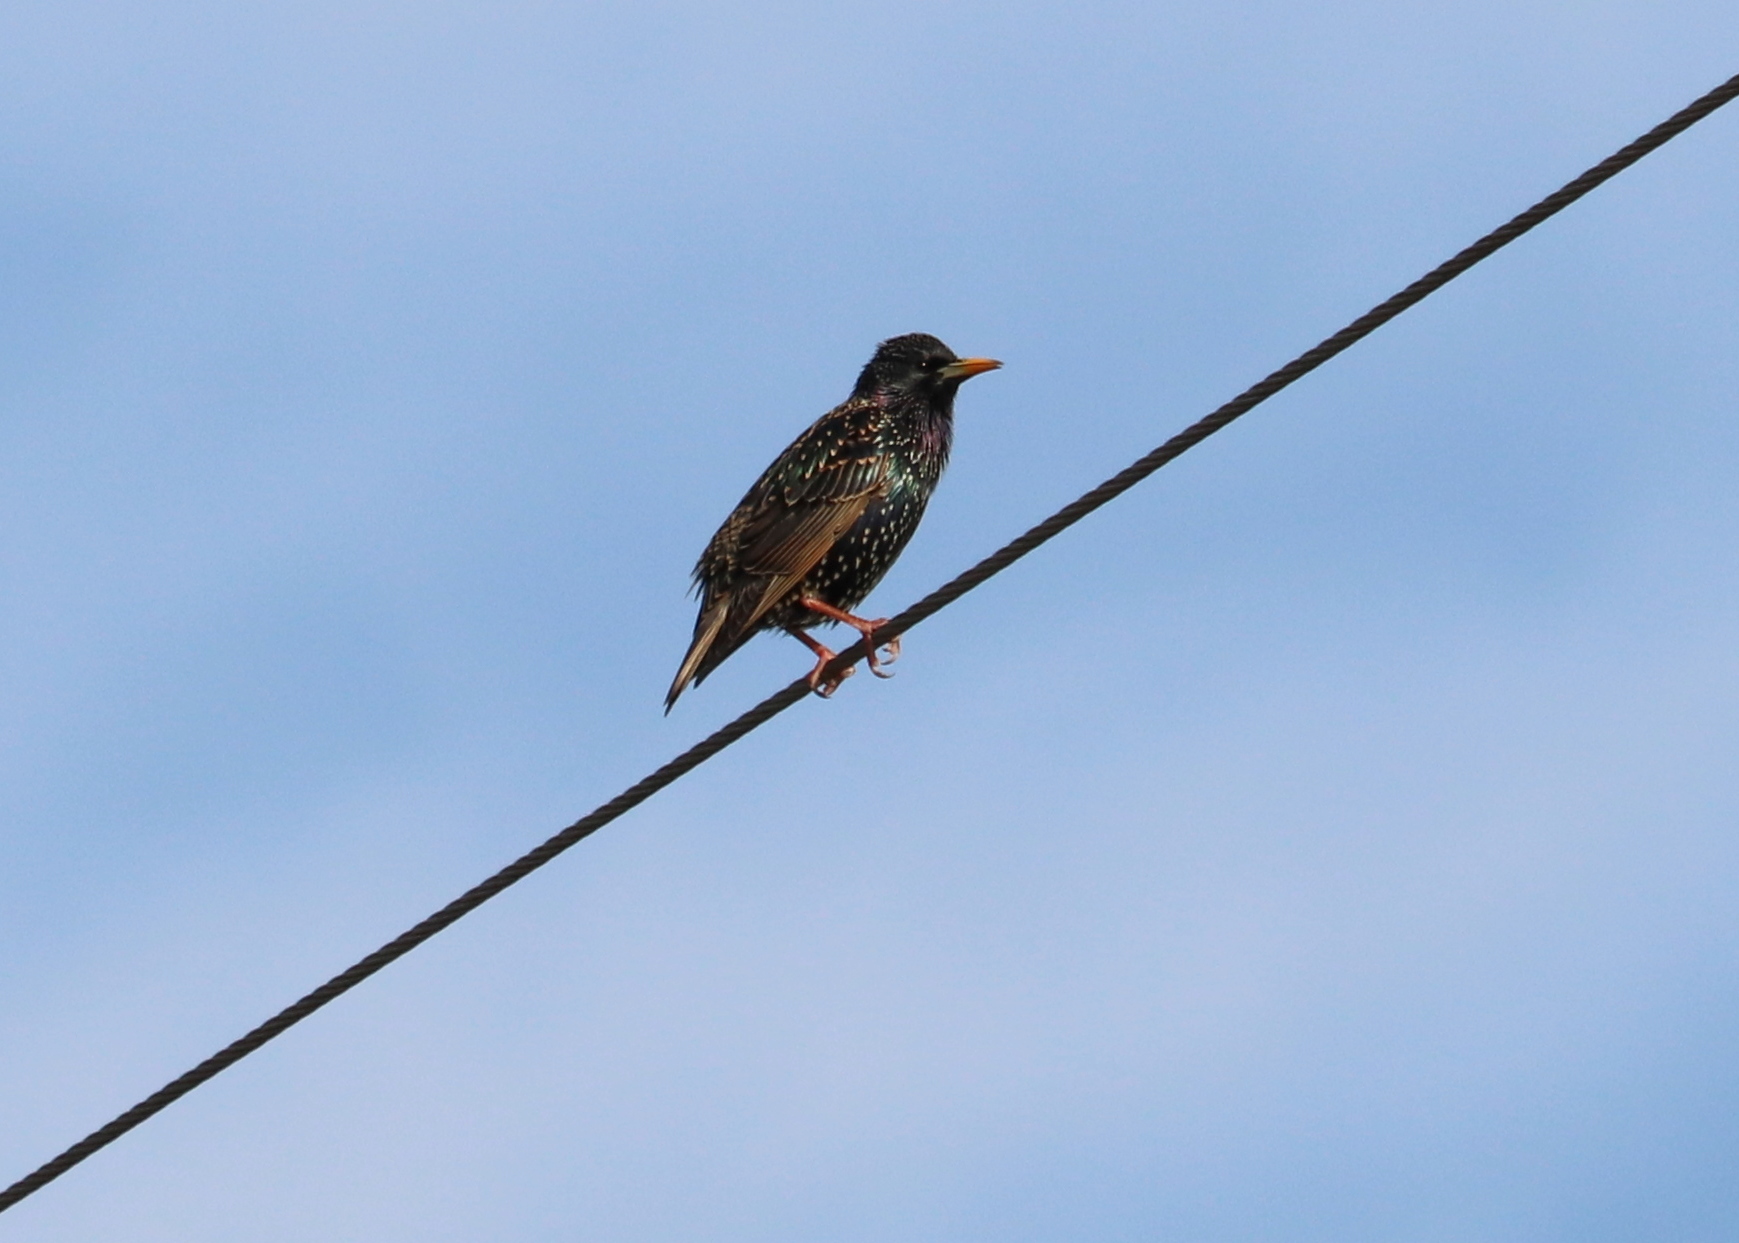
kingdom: Animalia
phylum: Chordata
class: Aves
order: Passeriformes
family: Sturnidae
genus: Sturnus
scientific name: Sturnus vulgaris
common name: Common starling
